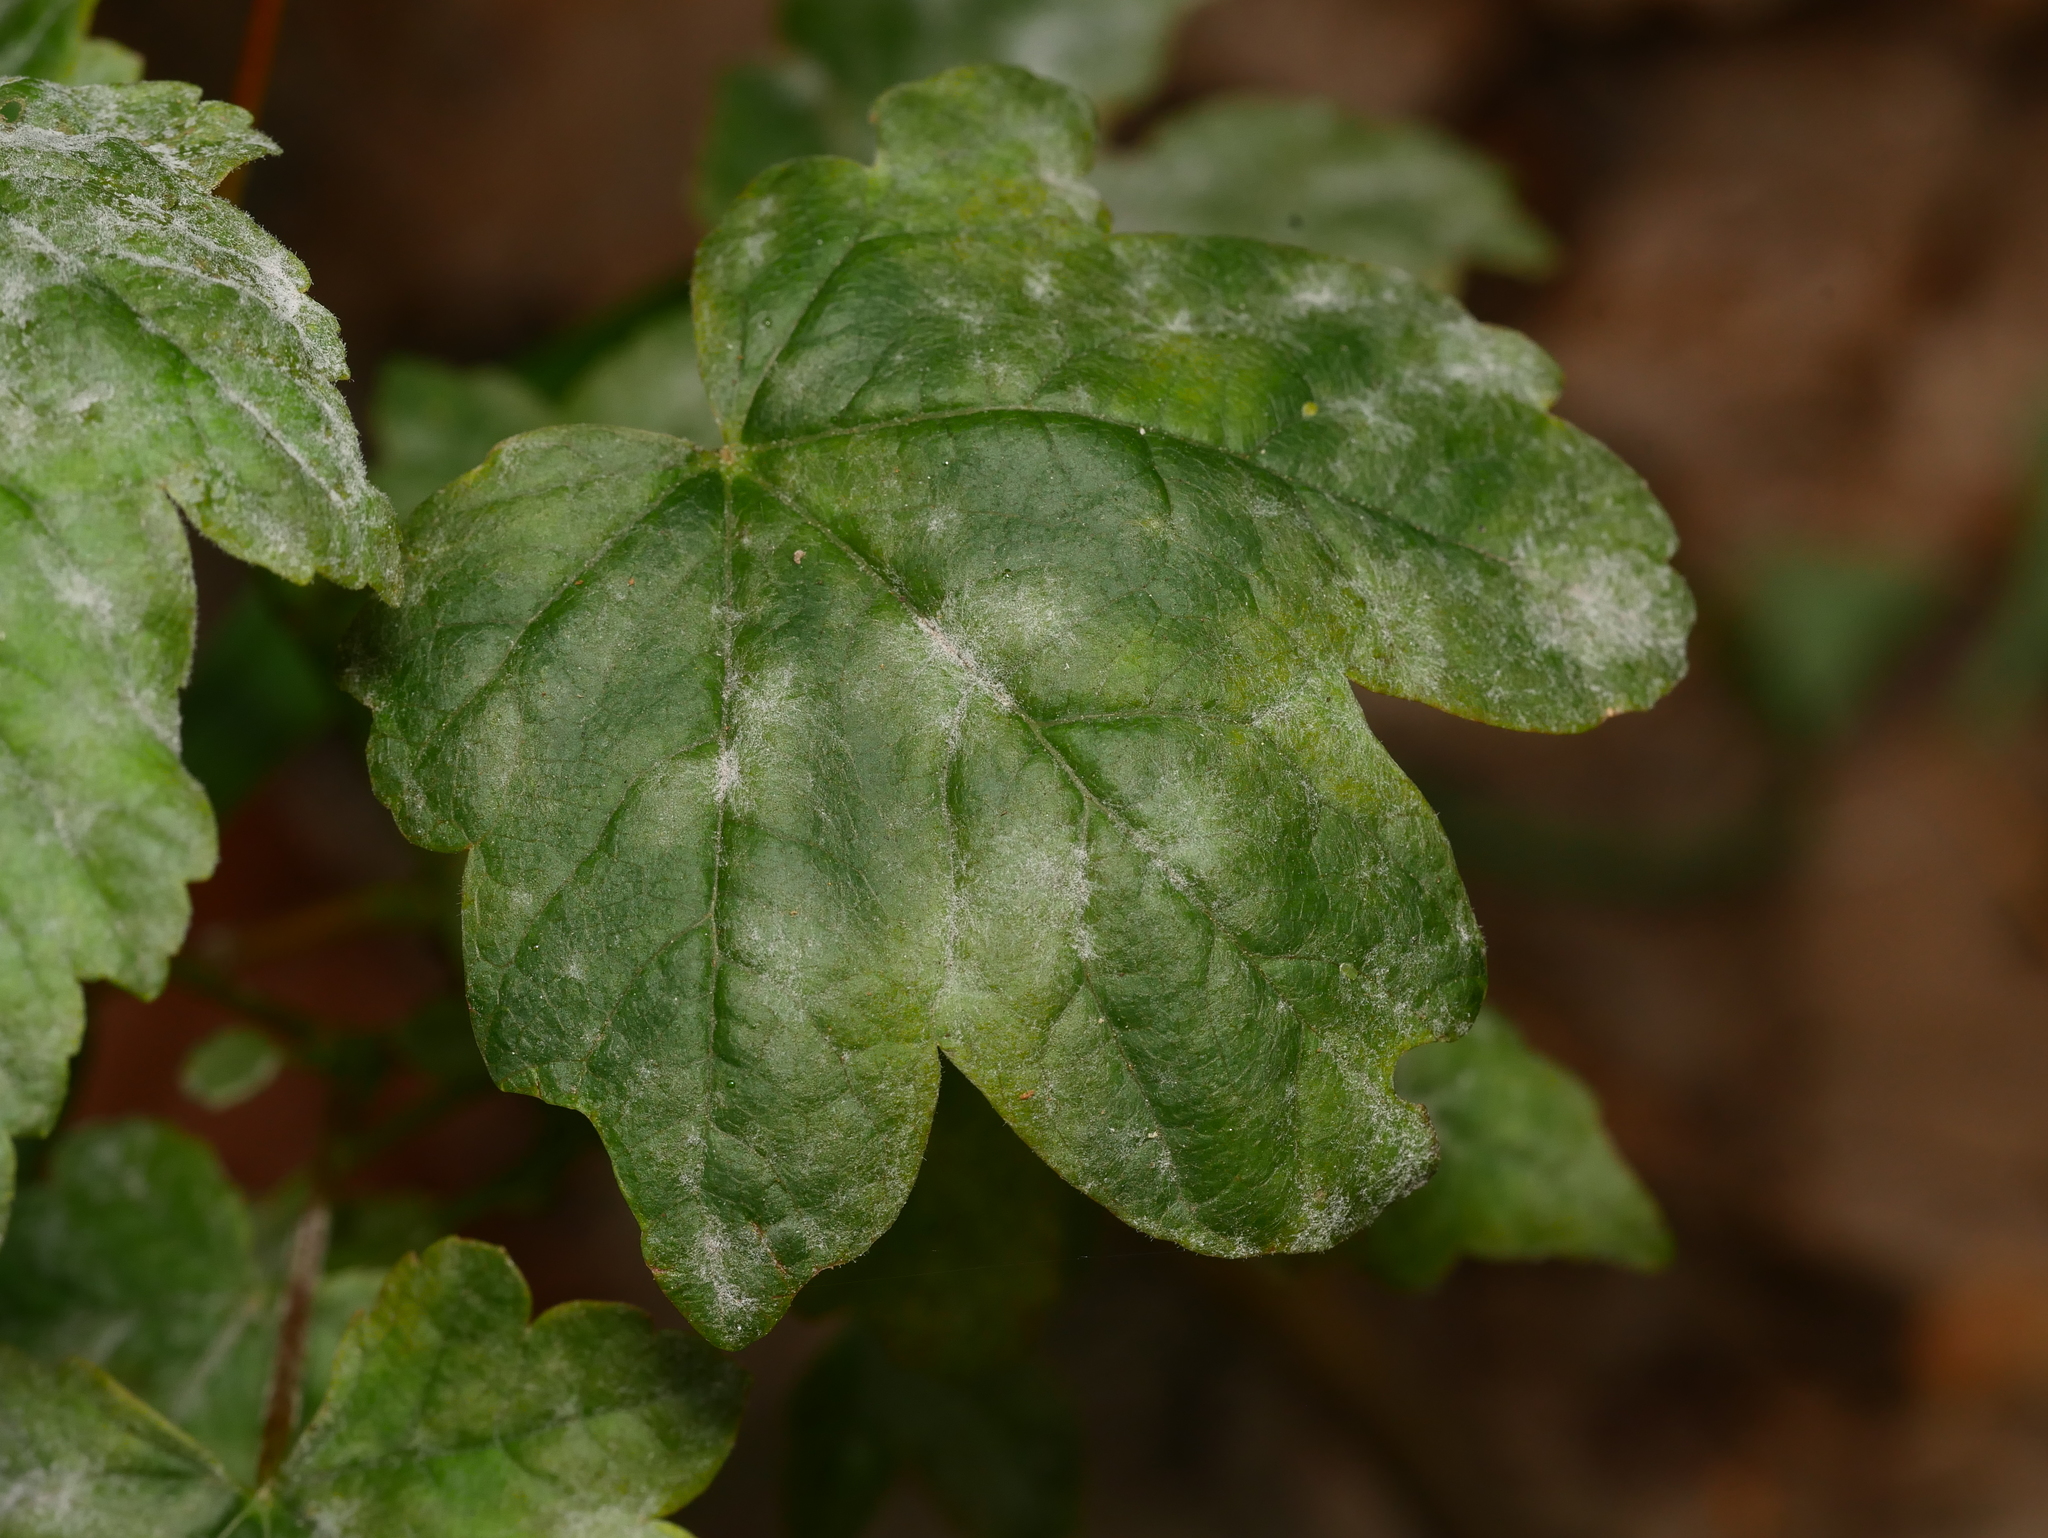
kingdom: Plantae
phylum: Tracheophyta
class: Magnoliopsida
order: Sapindales
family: Sapindaceae
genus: Acer
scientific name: Acer pseudoplatanus
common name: Sycamore
